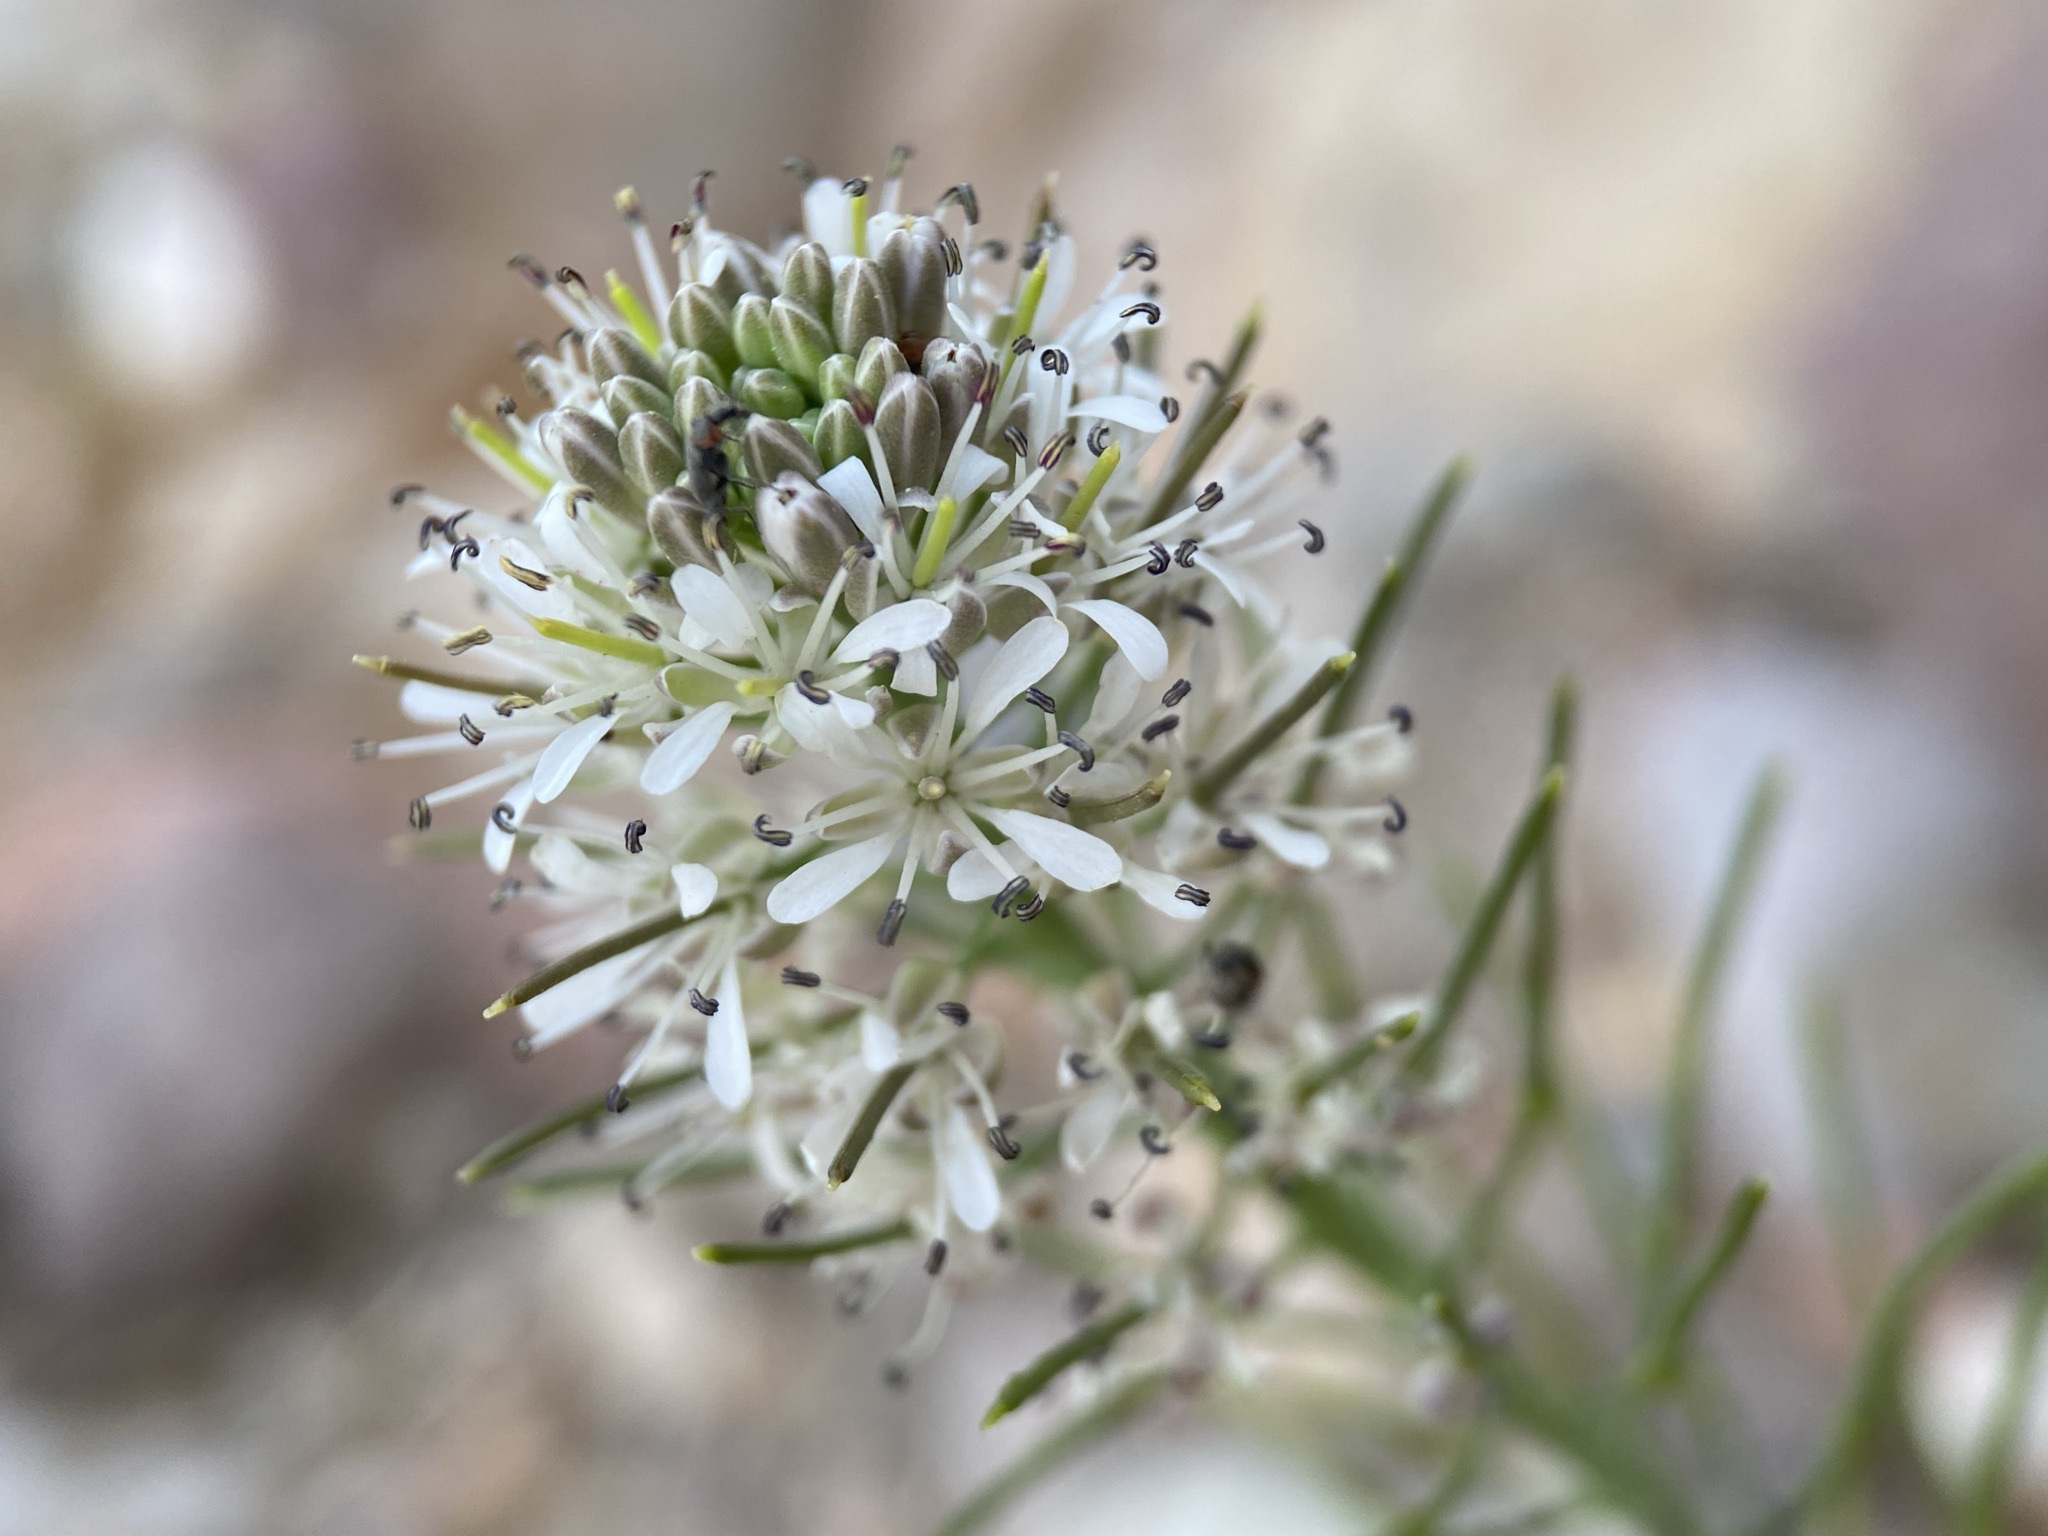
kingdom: Plantae
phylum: Tracheophyta
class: Magnoliopsida
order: Brassicales
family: Brassicaceae
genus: Thelypodium
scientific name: Thelypodium texanum
